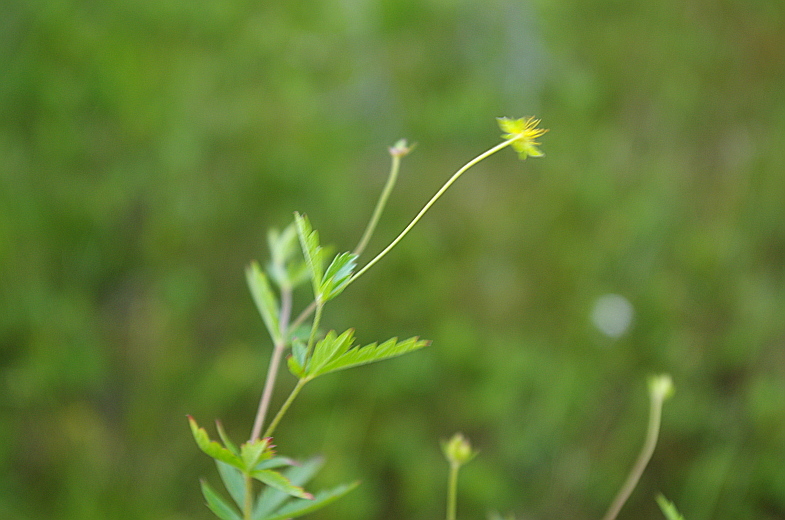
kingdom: Plantae
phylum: Tracheophyta
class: Magnoliopsida
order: Rosales
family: Rosaceae
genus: Potentilla
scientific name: Potentilla erecta
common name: Tormentil
